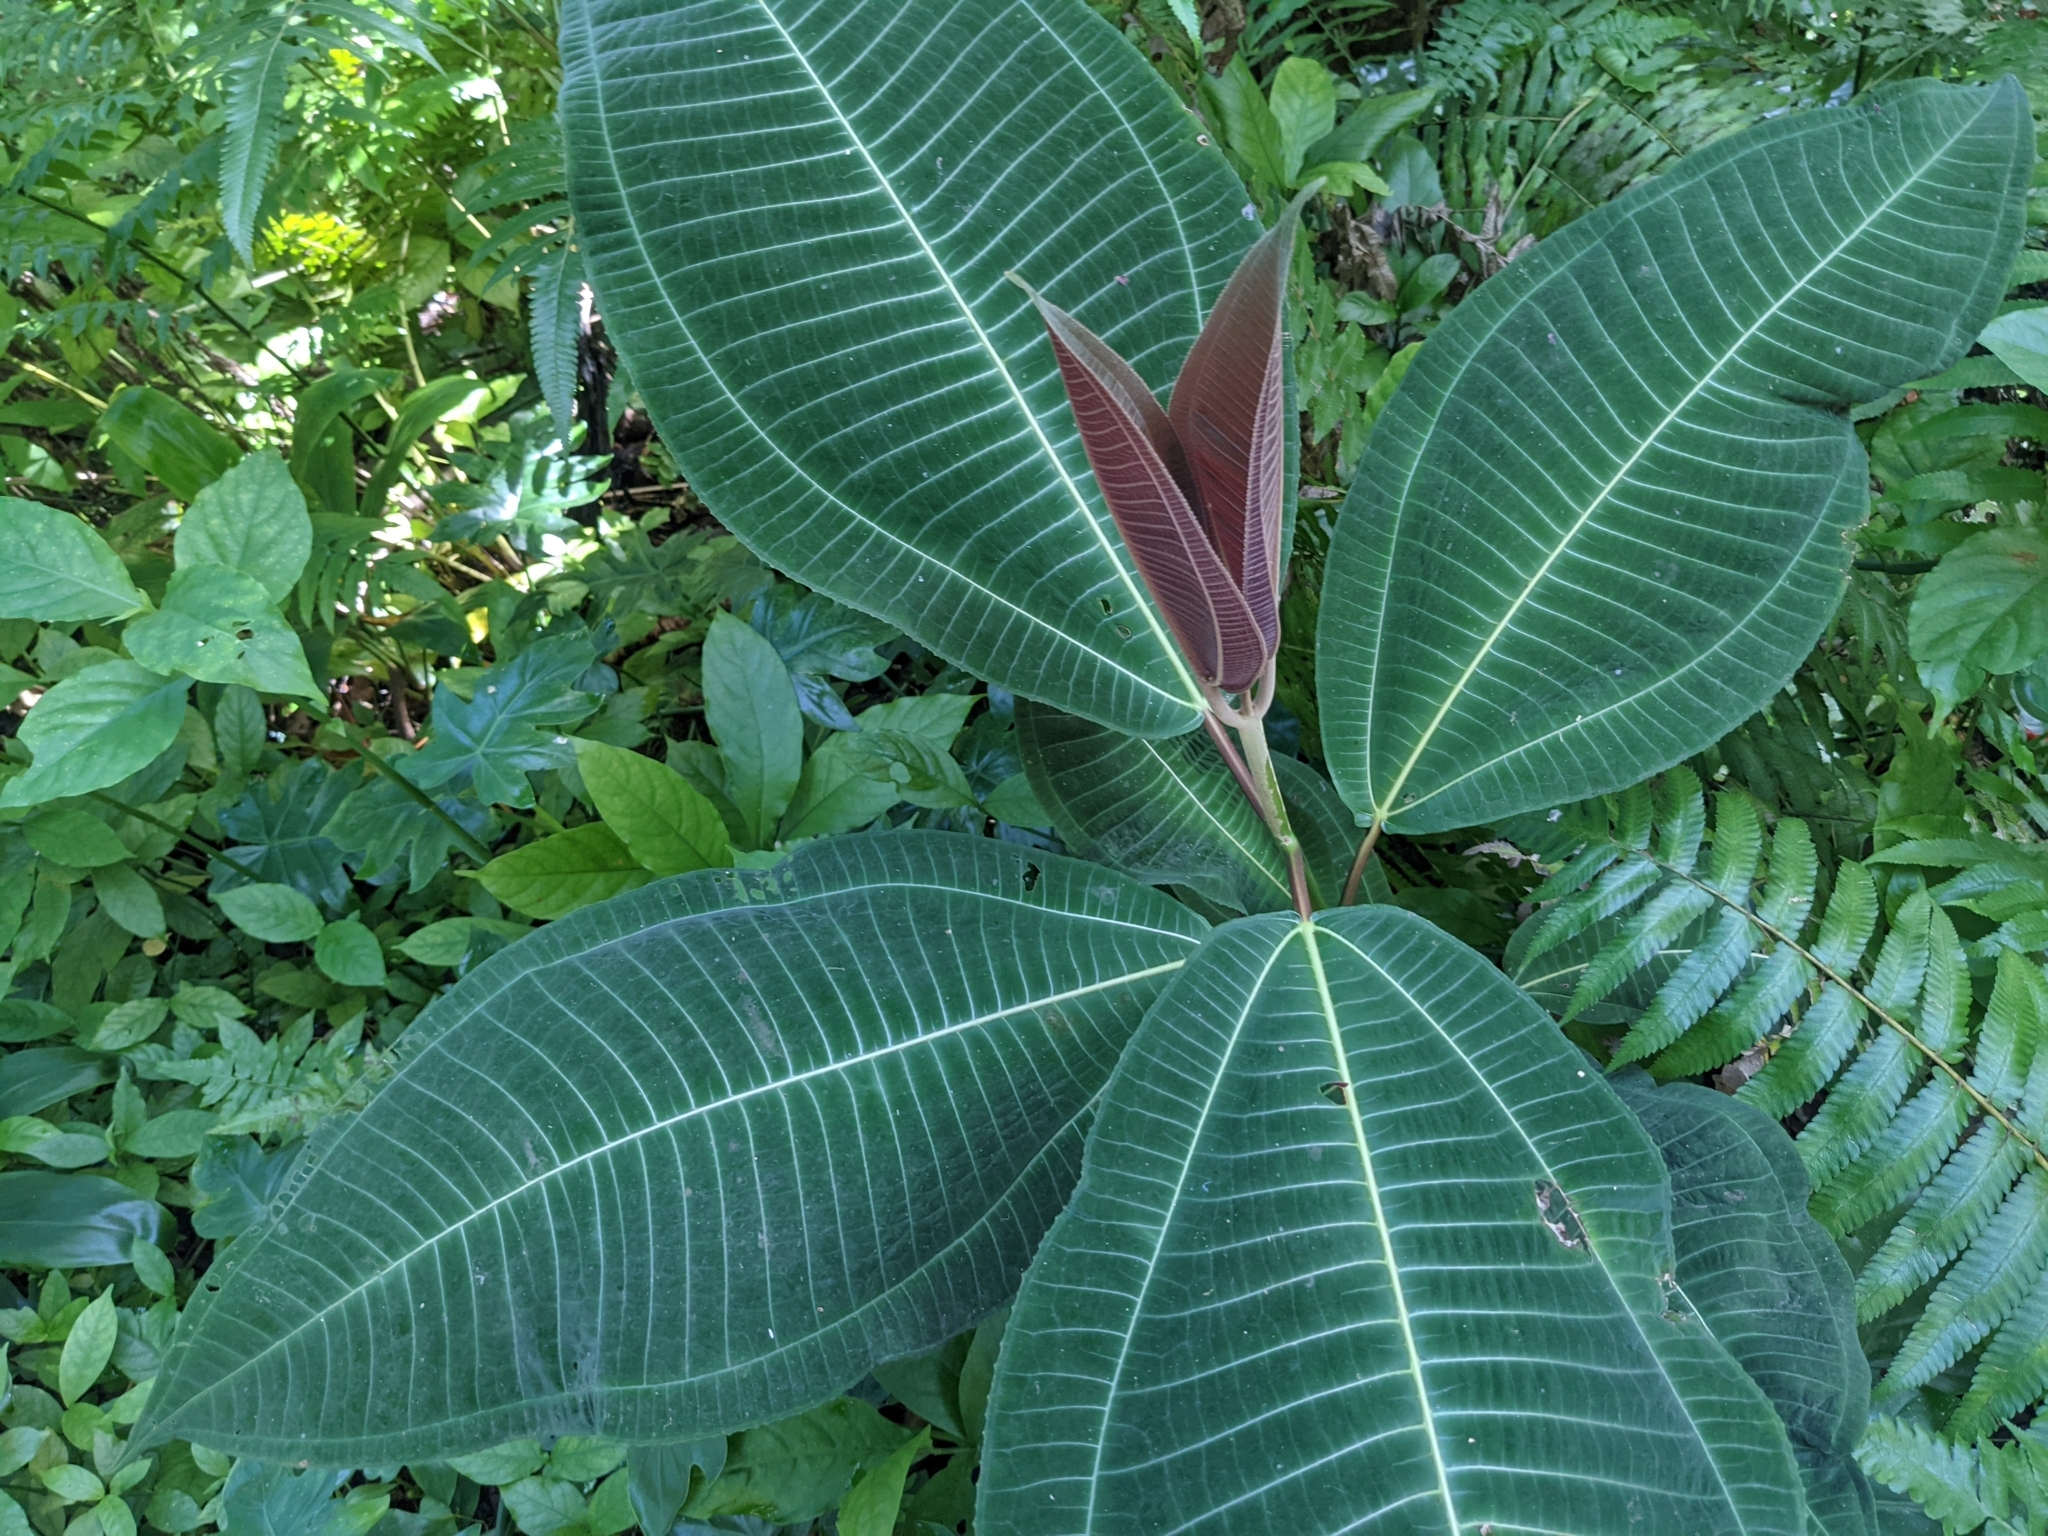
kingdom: Plantae
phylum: Tracheophyta
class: Magnoliopsida
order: Myrtales
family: Melastomataceae
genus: Miconia
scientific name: Miconia calvescens
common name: Purple plague
